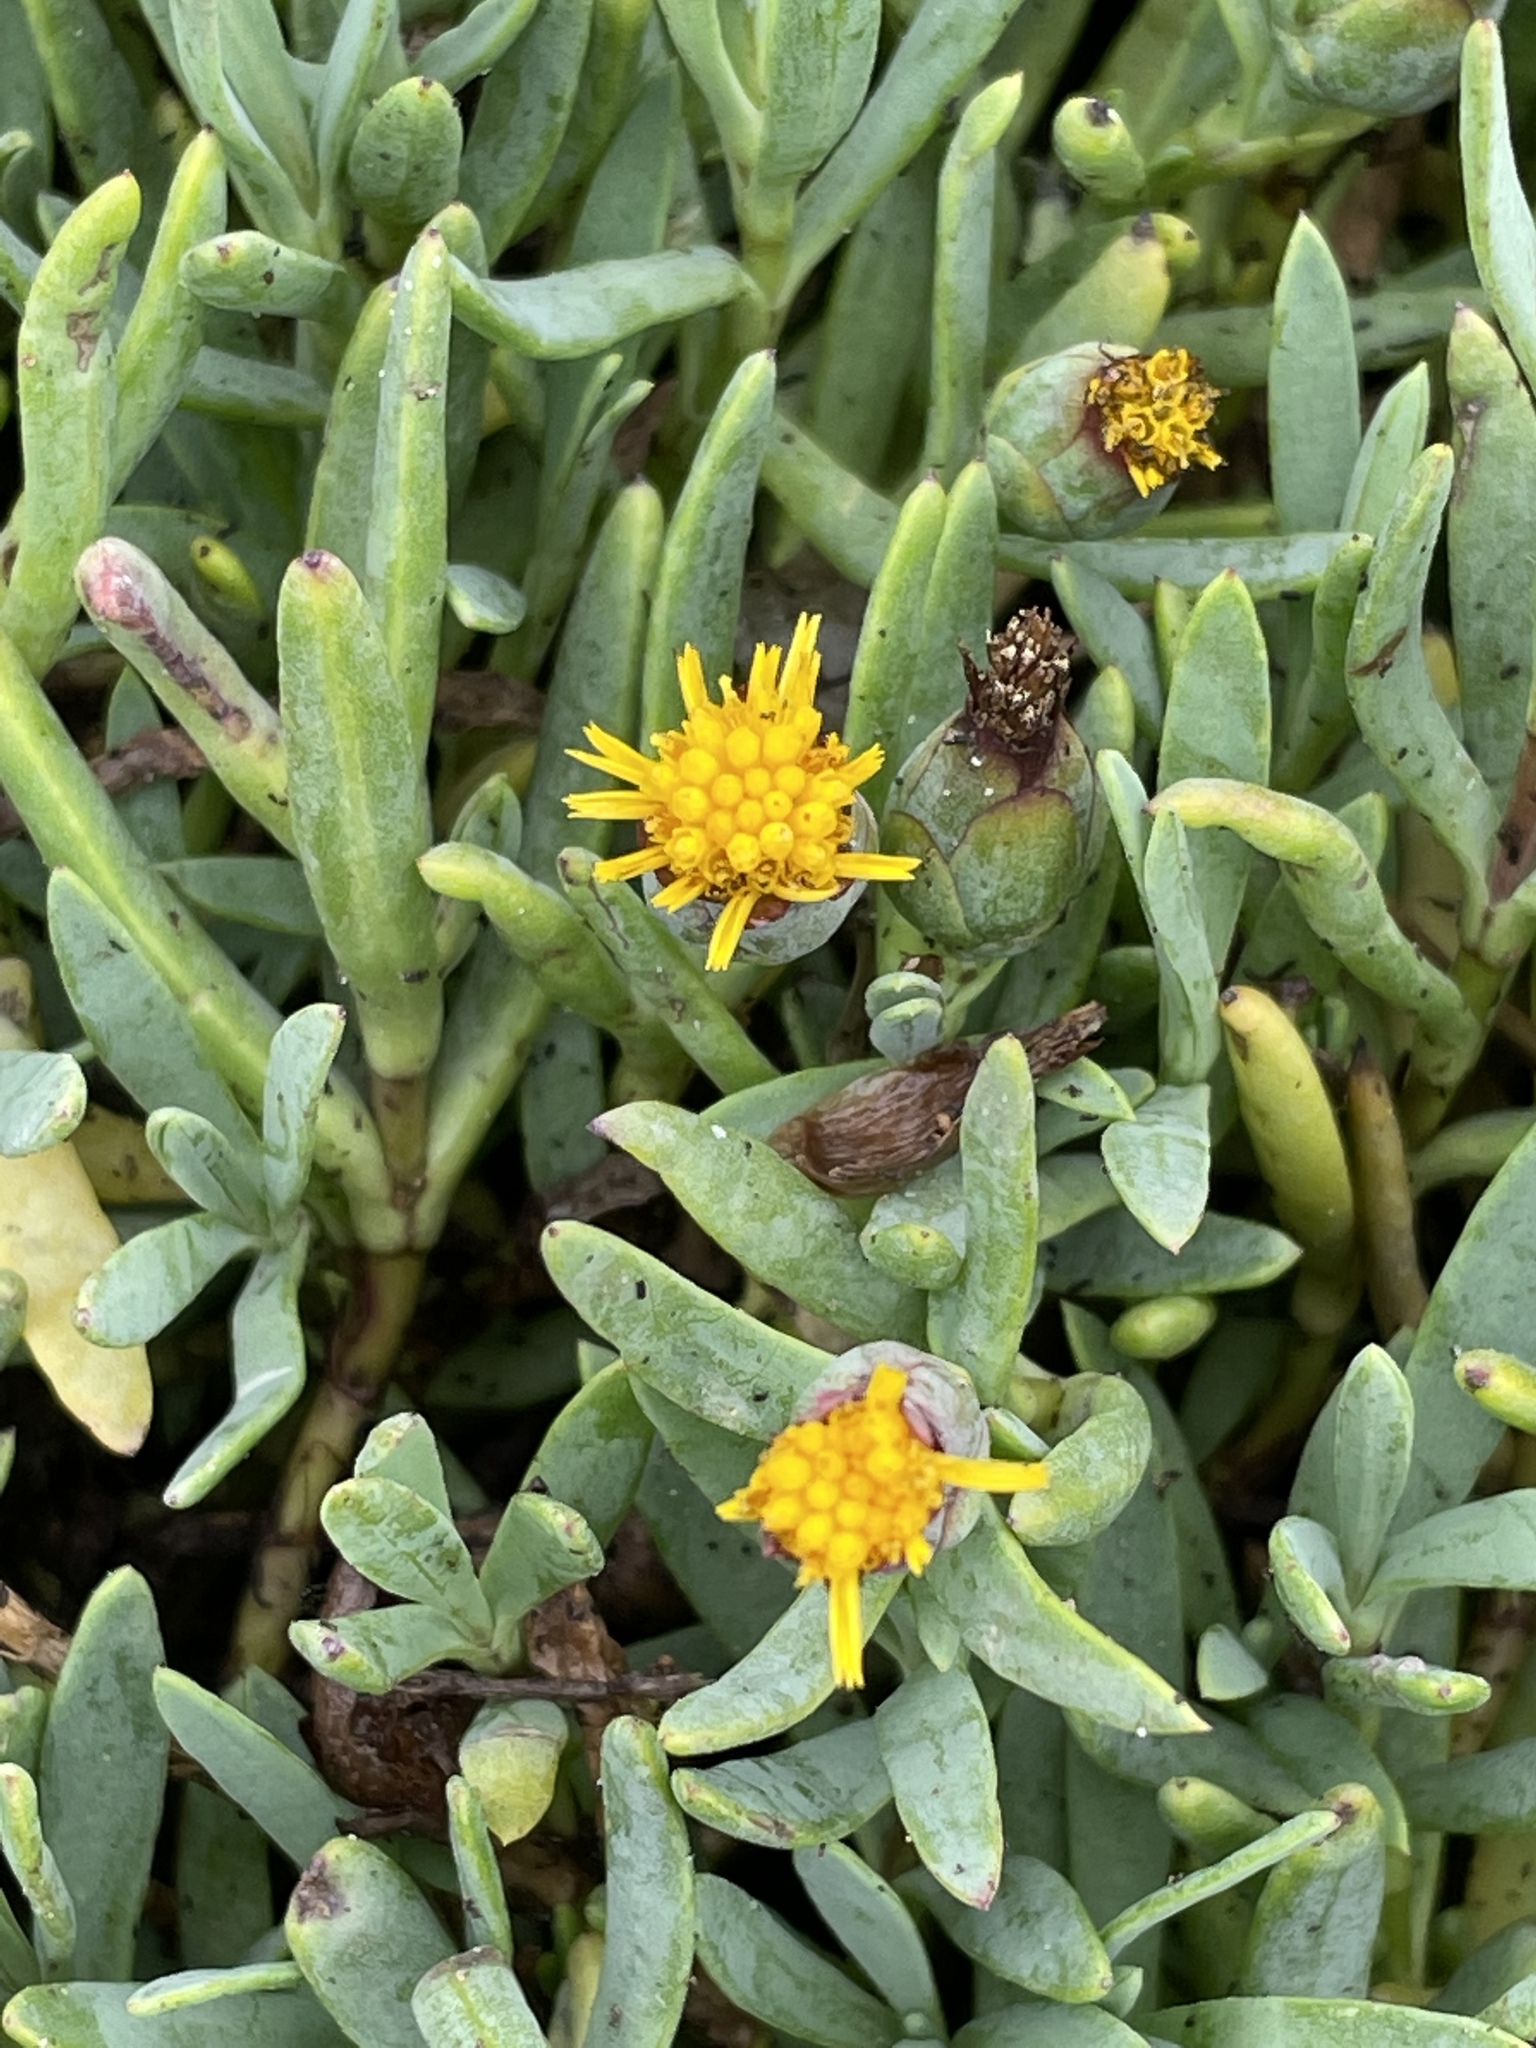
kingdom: Plantae
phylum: Tracheophyta
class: Magnoliopsida
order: Asterales
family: Asteraceae
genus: Jaumea
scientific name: Jaumea carnosa
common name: Fleshy jaumea
